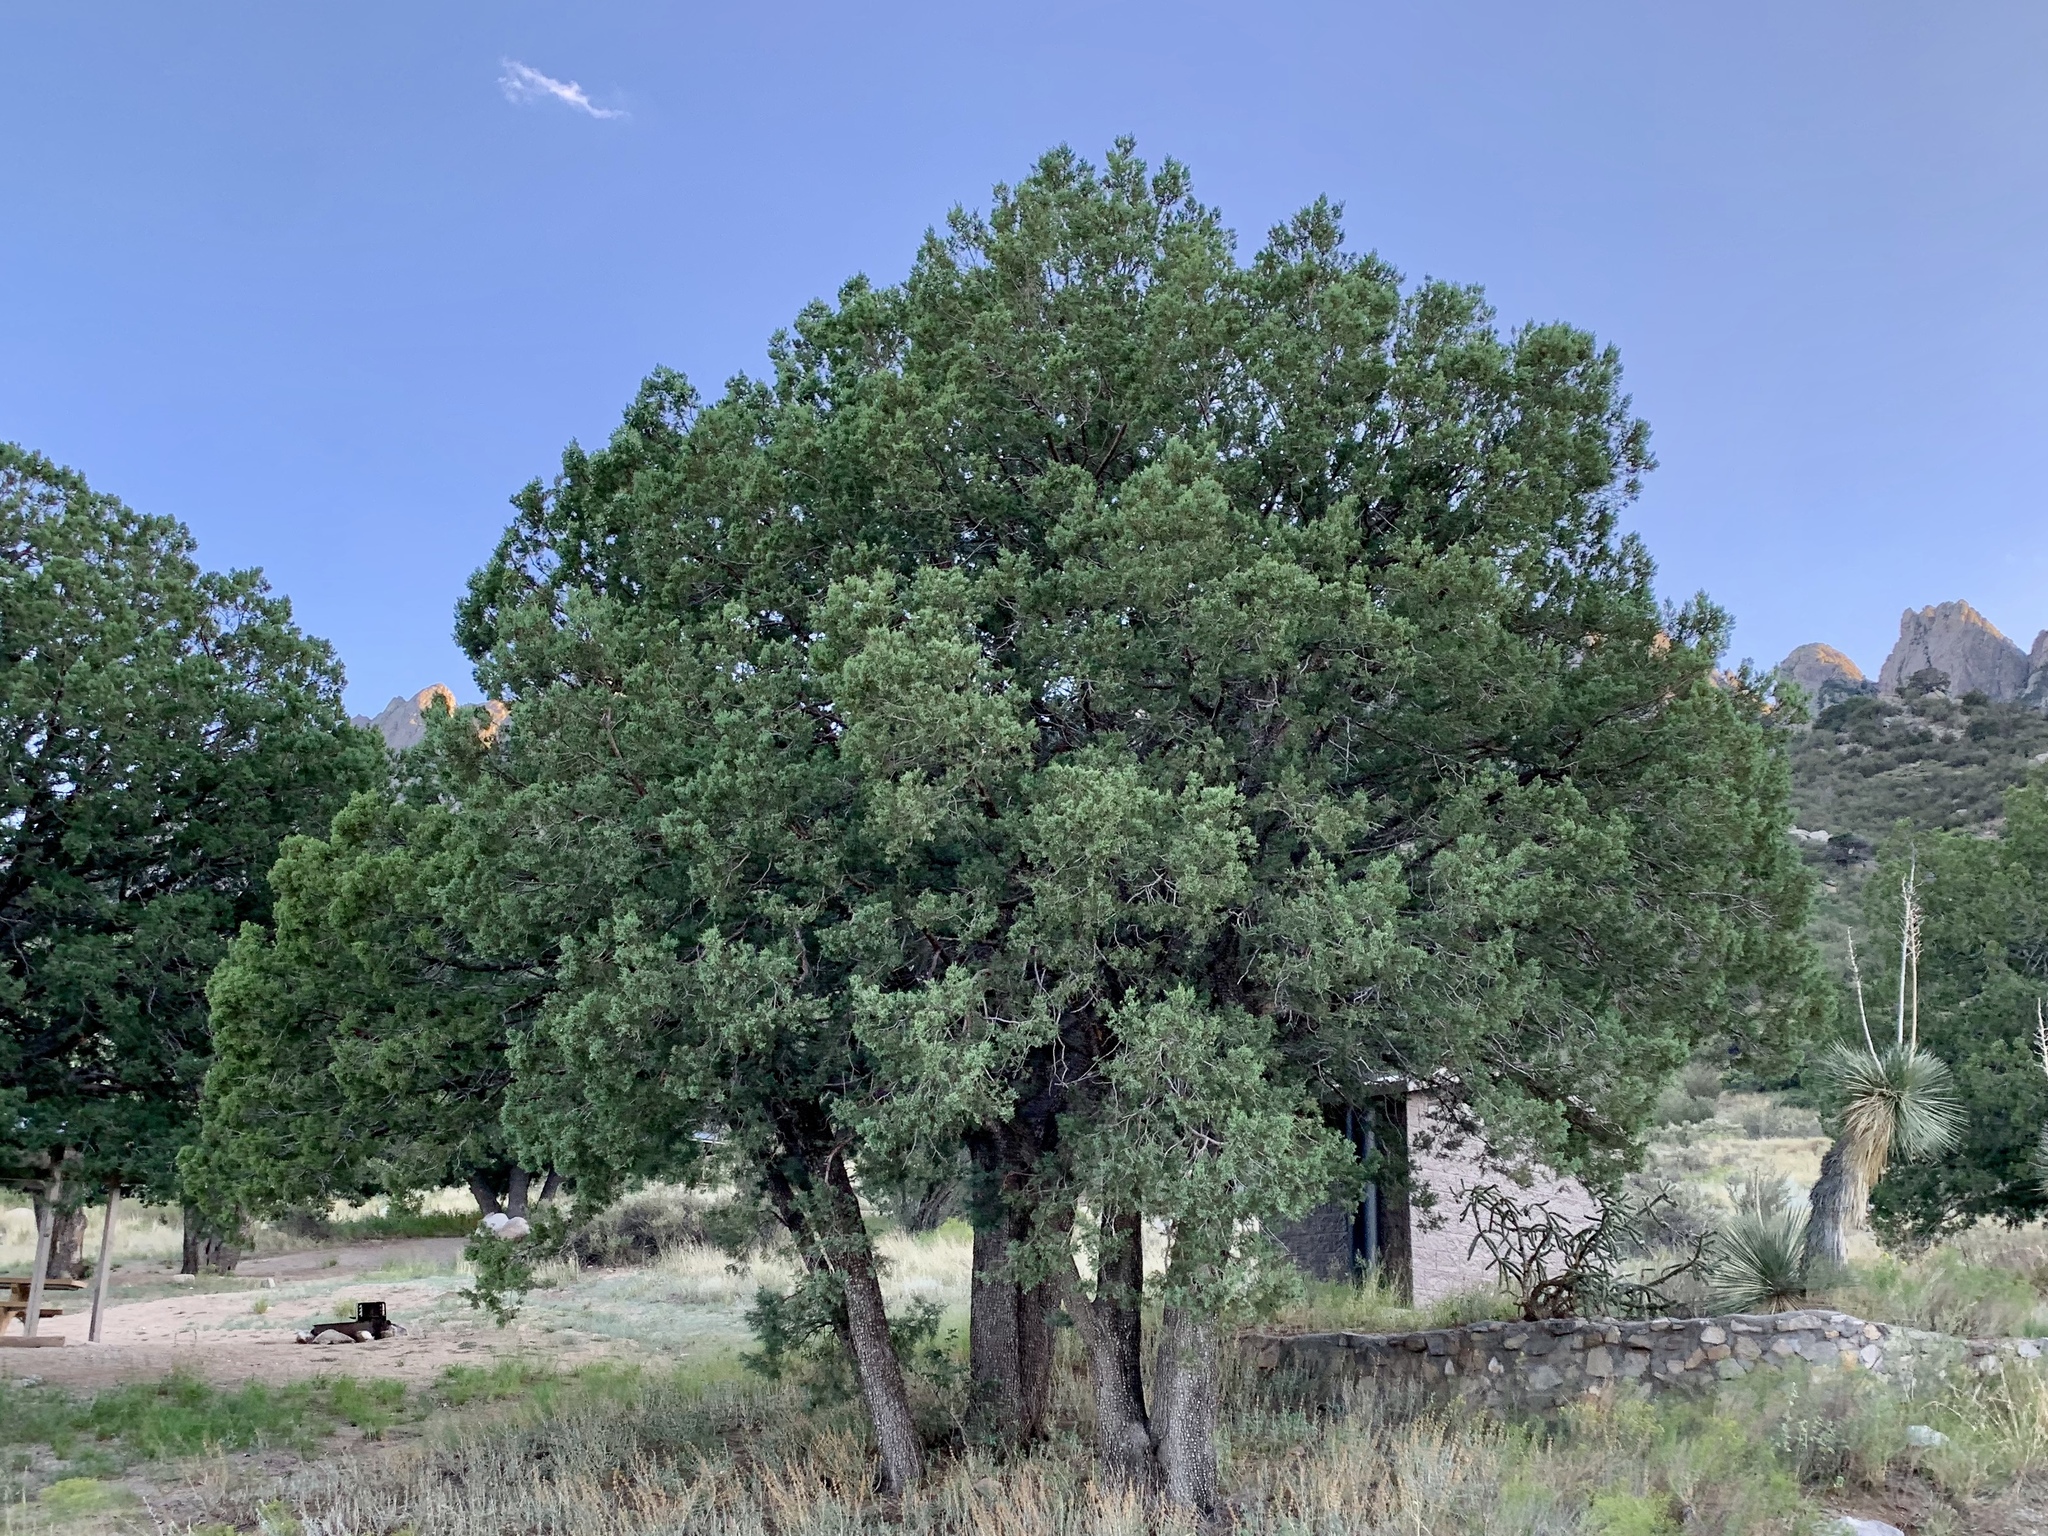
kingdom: Plantae
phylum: Tracheophyta
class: Pinopsida
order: Pinales
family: Cupressaceae
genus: Juniperus
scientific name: Juniperus deppeana
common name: Alligator juniper
